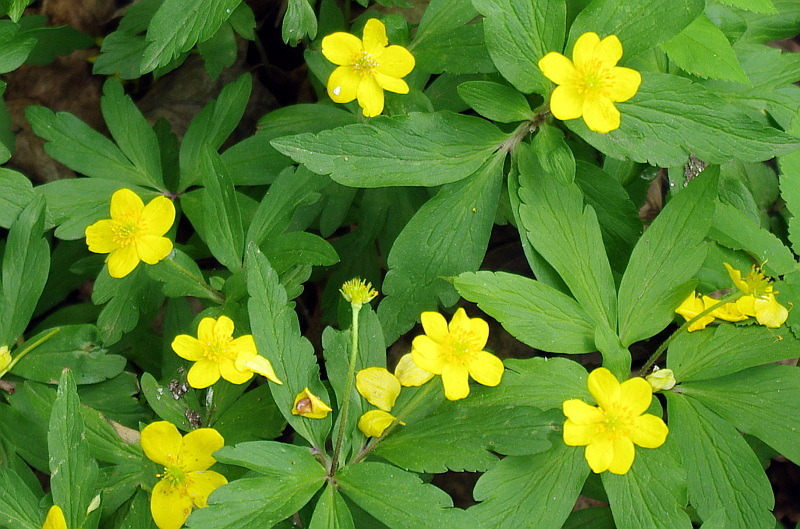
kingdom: Plantae
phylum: Tracheophyta
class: Magnoliopsida
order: Ranunculales
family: Ranunculaceae
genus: Anemone
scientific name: Anemone ranunculoides
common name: Yellow anemone
